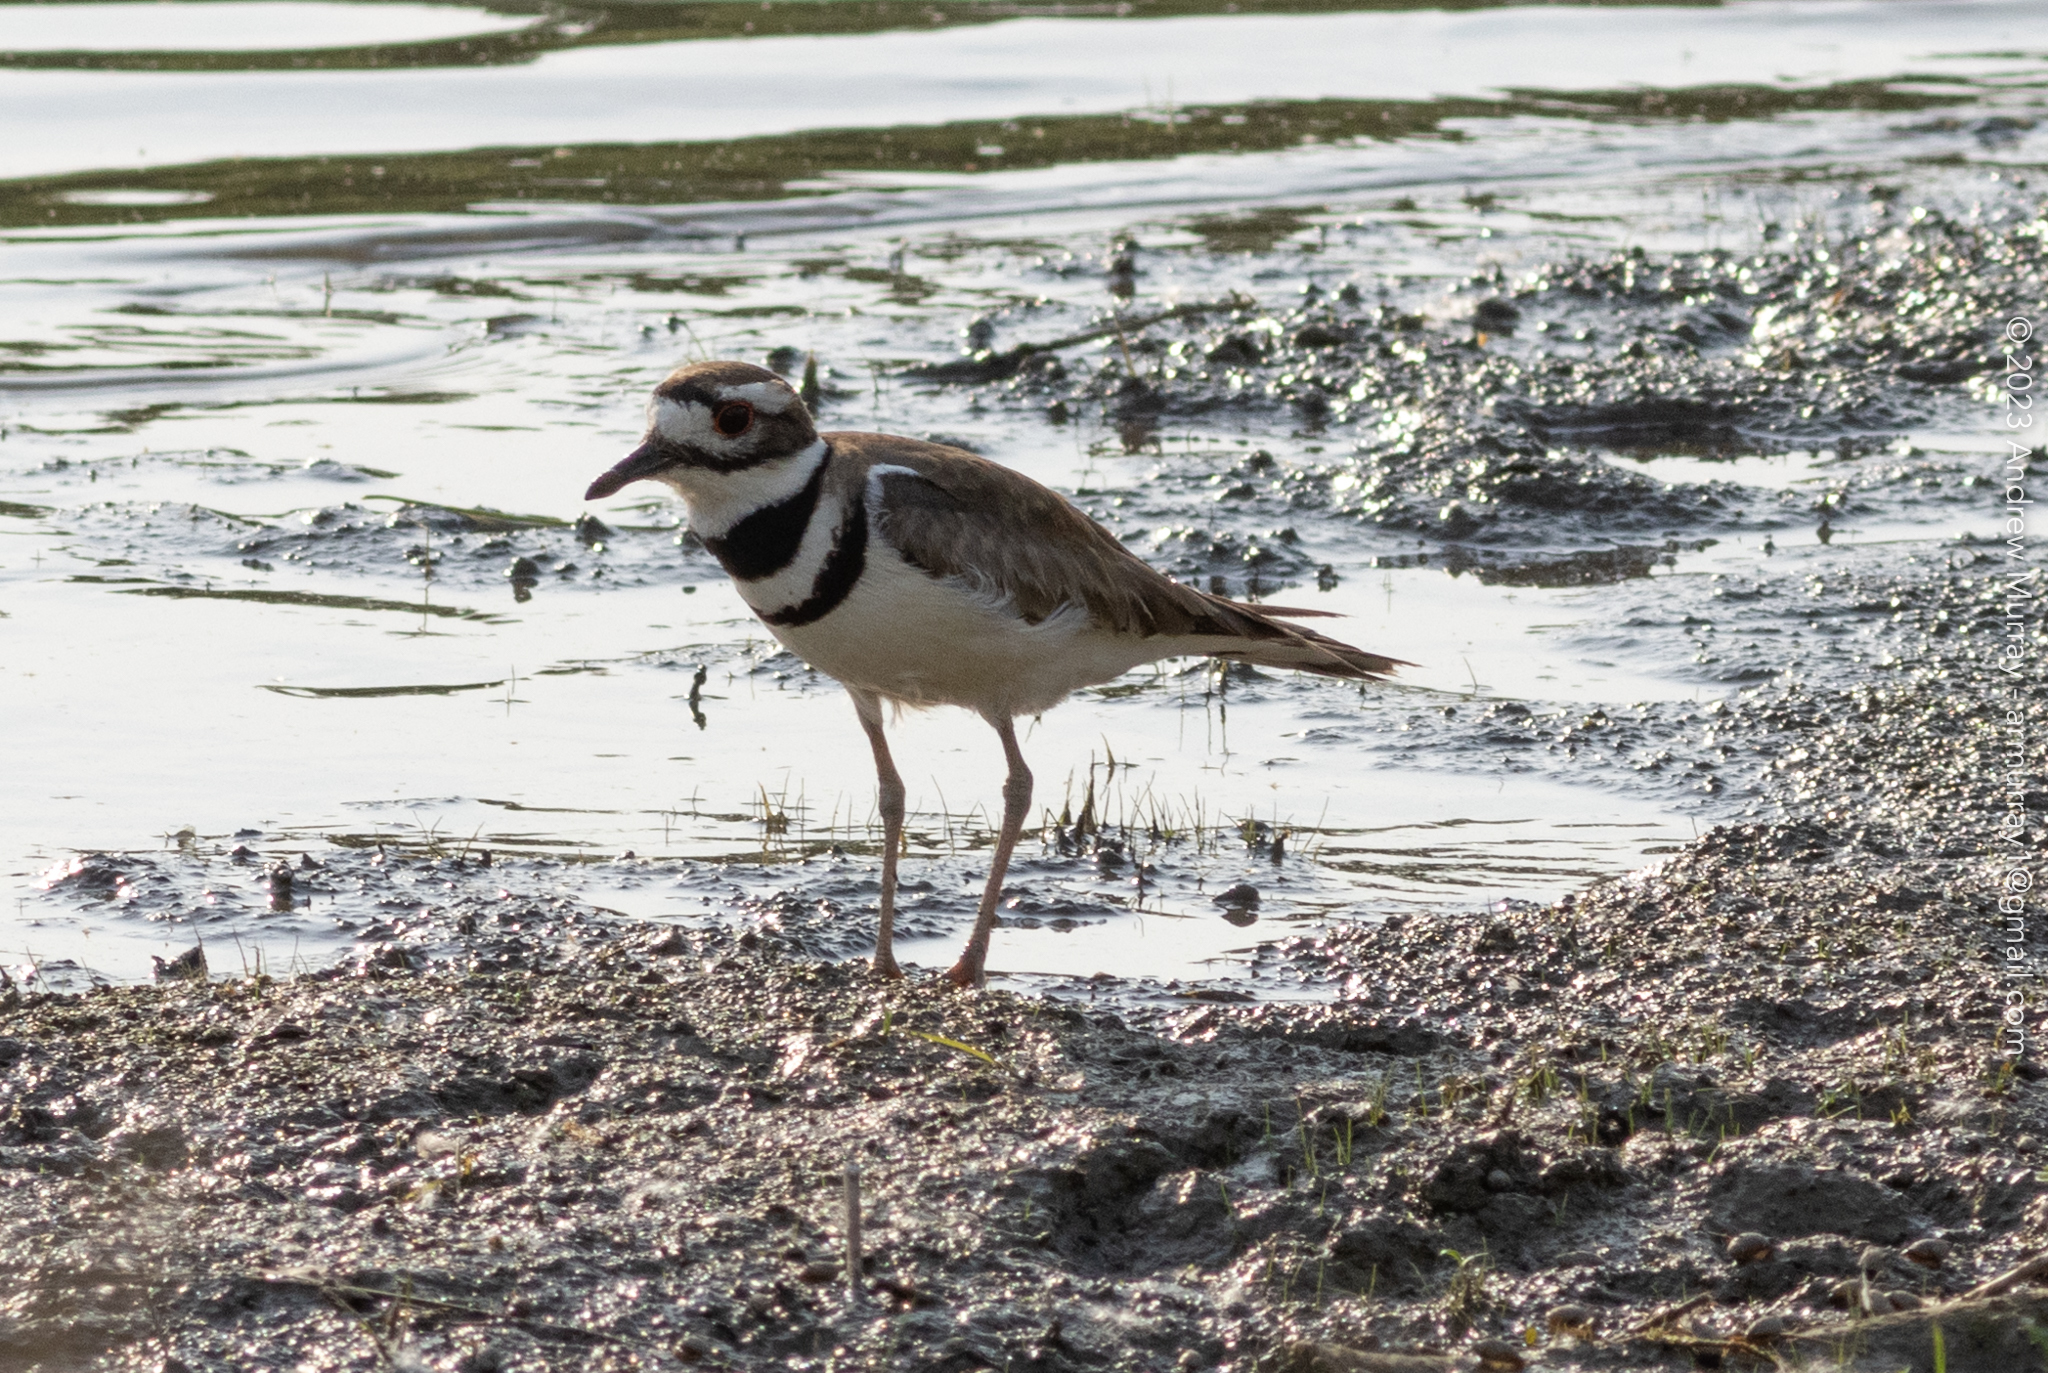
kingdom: Animalia
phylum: Chordata
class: Aves
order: Charadriiformes
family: Charadriidae
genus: Charadrius
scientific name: Charadrius vociferus
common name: Killdeer
